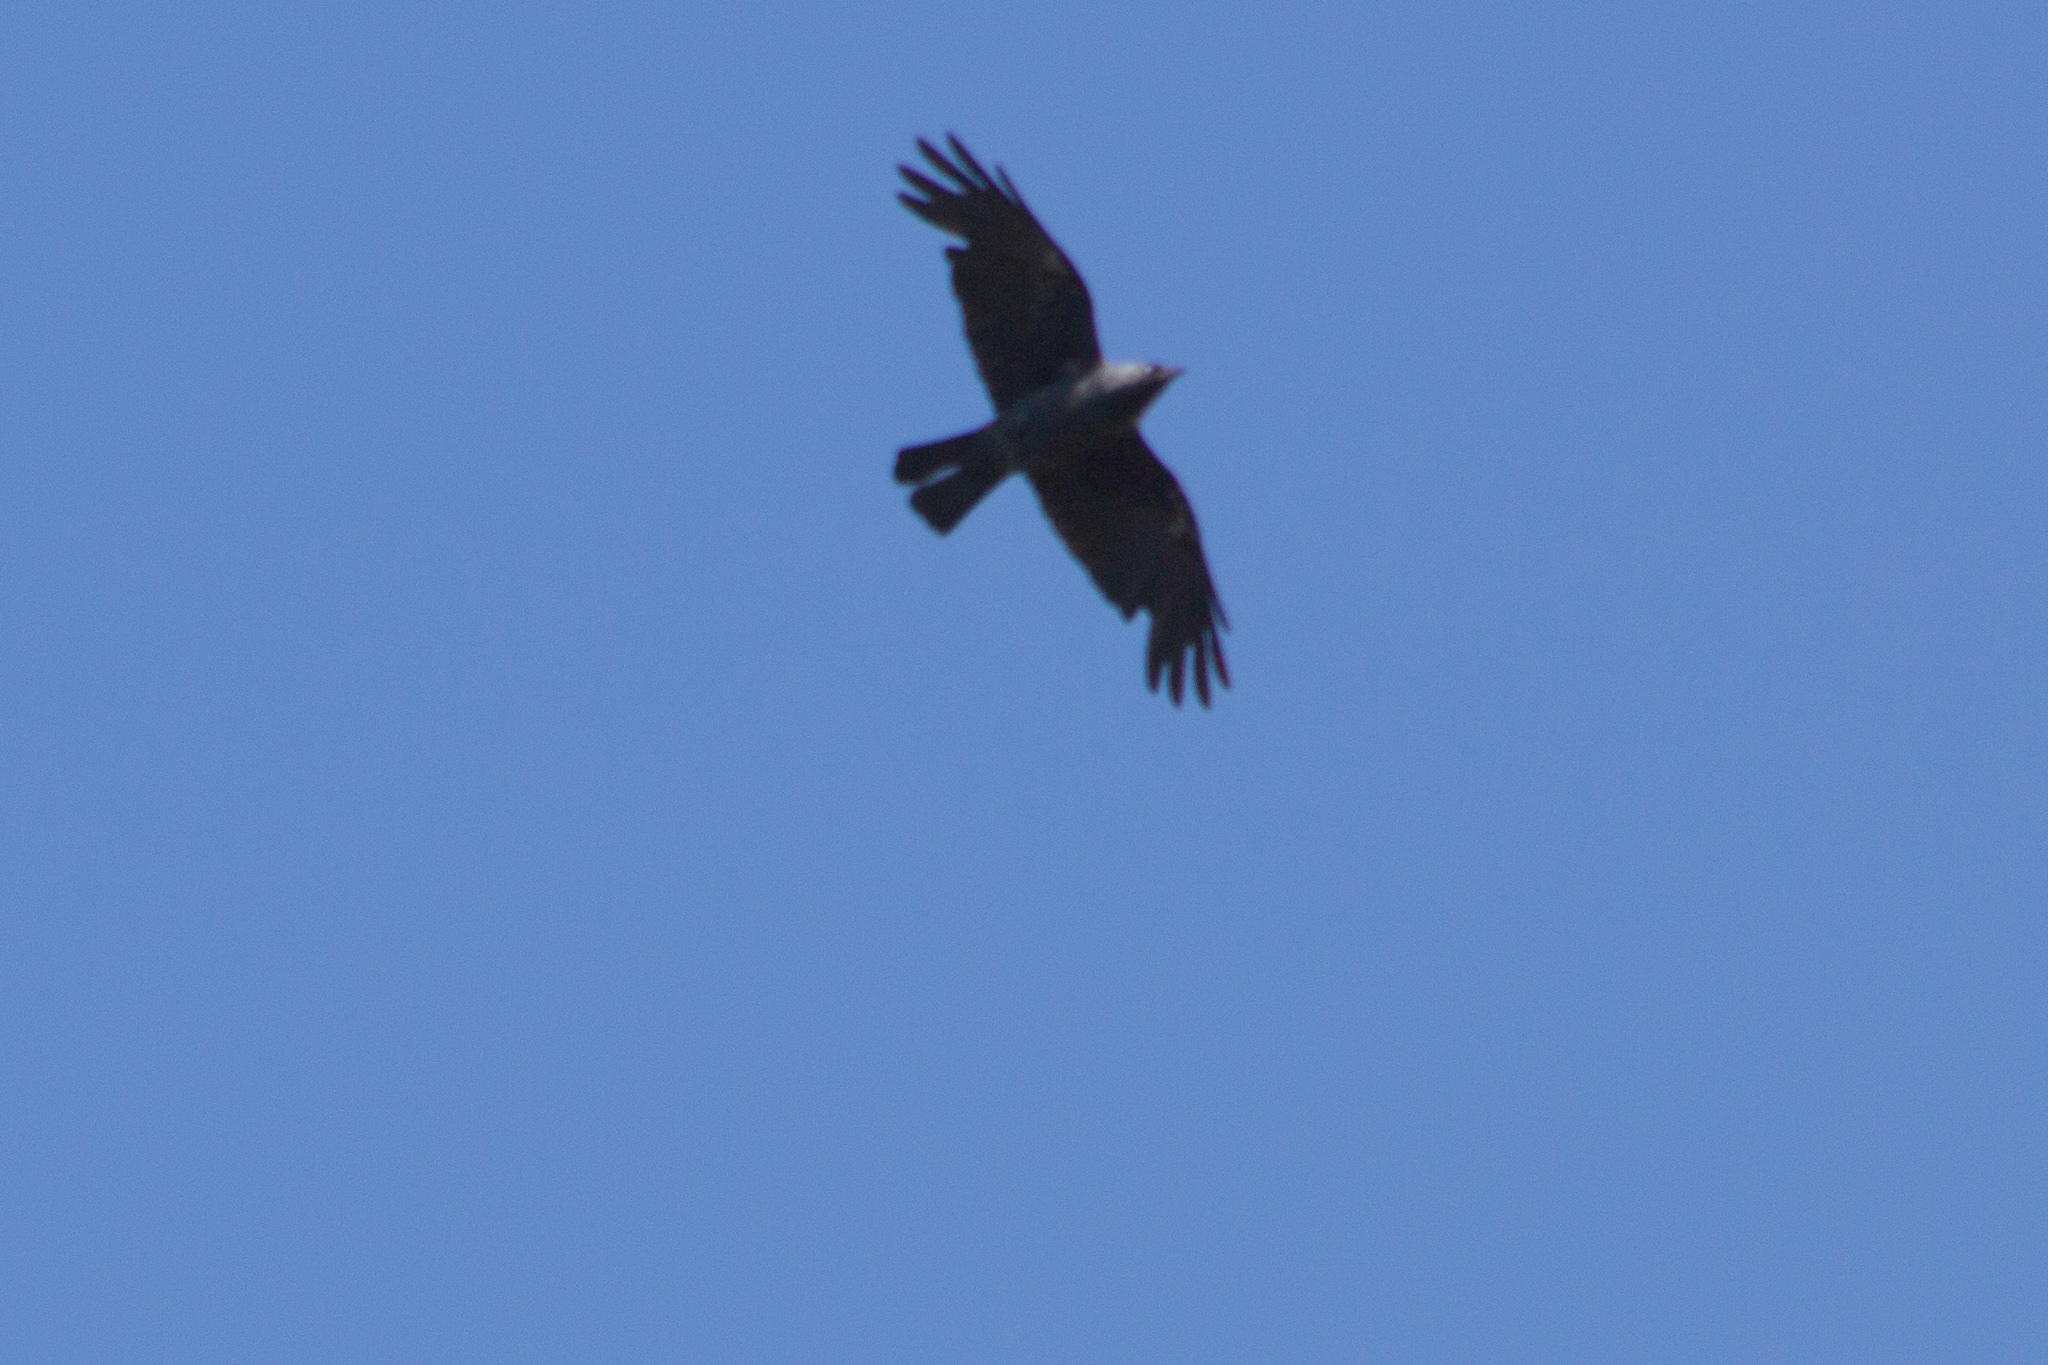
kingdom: Animalia
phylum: Chordata
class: Aves
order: Passeriformes
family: Corvidae
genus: Coloeus
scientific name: Coloeus monedula
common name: Western jackdaw
